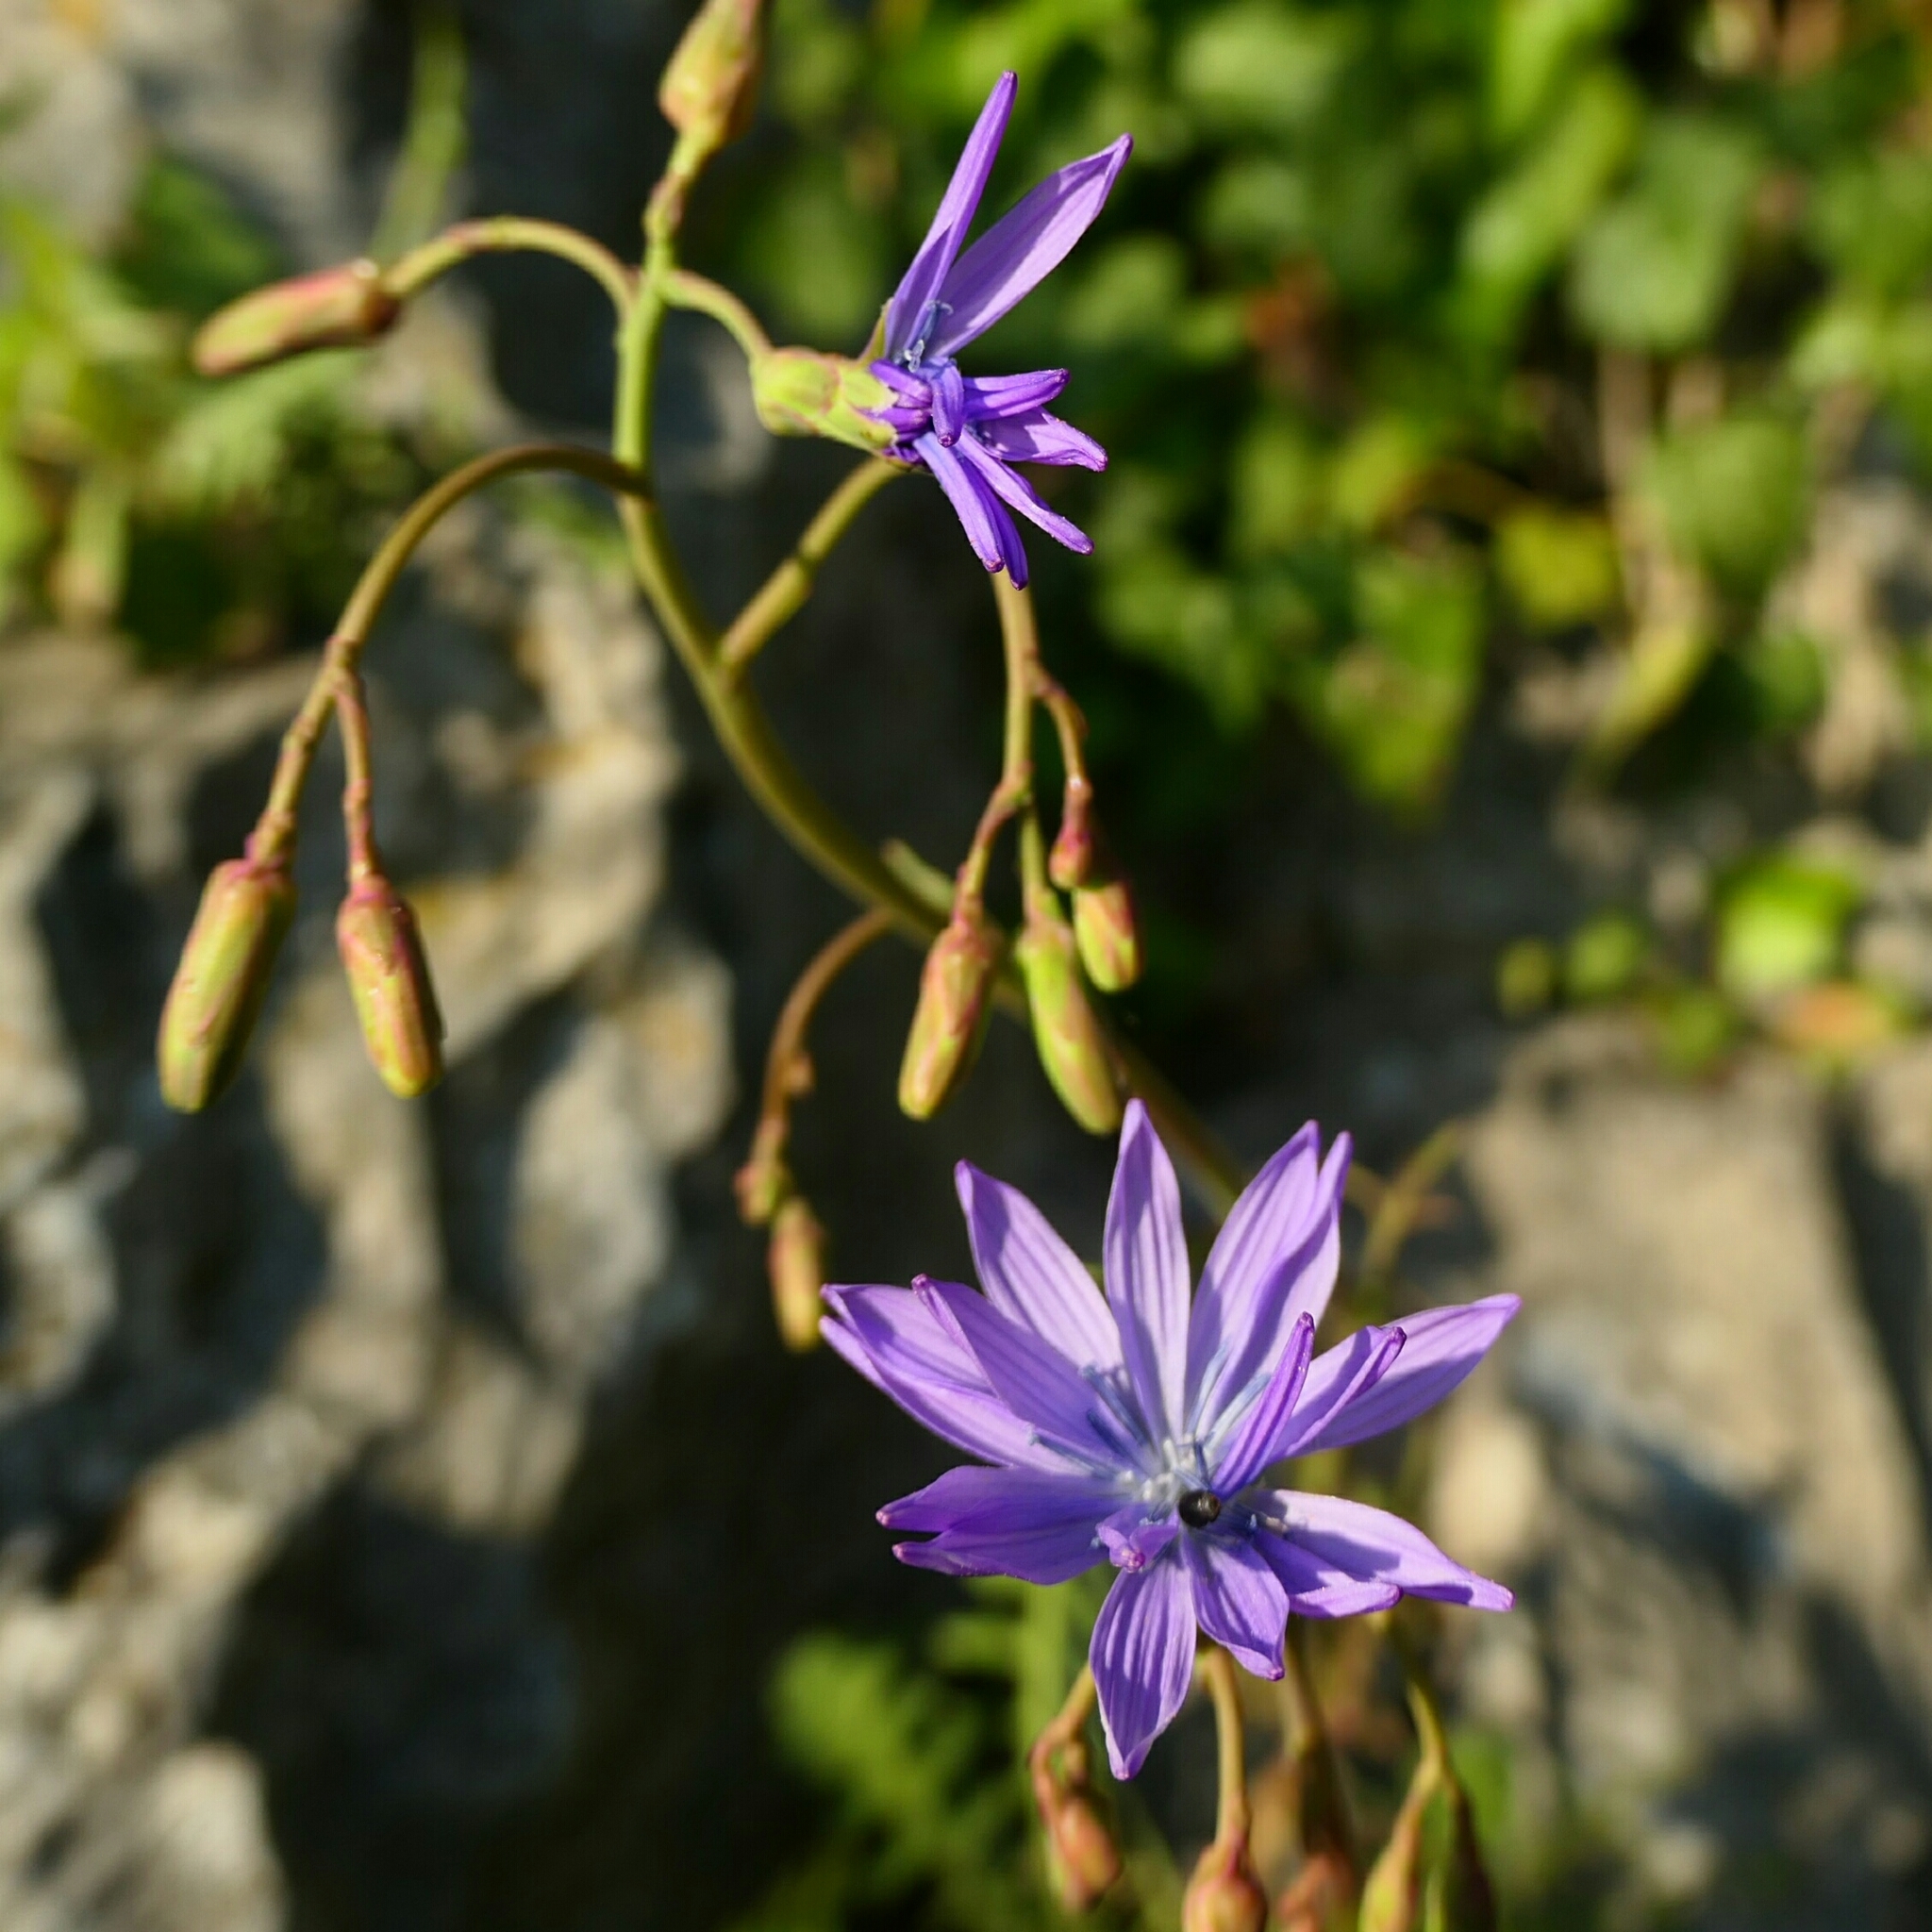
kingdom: Plantae
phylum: Tracheophyta
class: Magnoliopsida
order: Asterales
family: Asteraceae
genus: Lactuca
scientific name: Lactuca perennis
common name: Mountain lettuce
